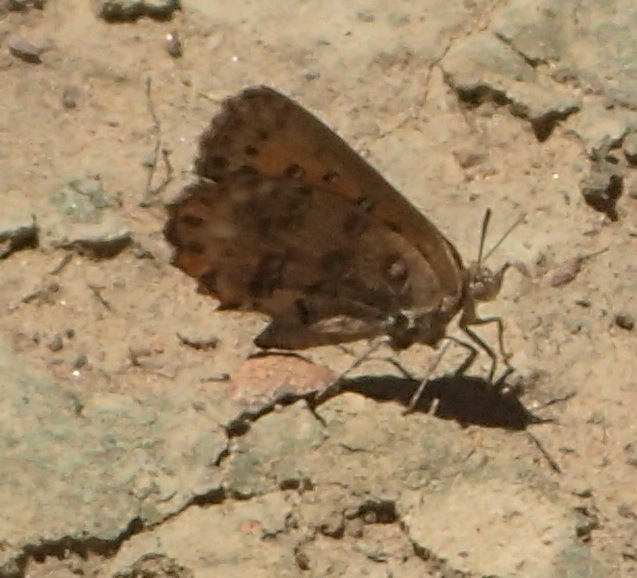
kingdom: Animalia
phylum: Arthropoda
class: Insecta
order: Lepidoptera
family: Lycaenidae
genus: Aloeides
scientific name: Aloeides pierus
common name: Dull copper
